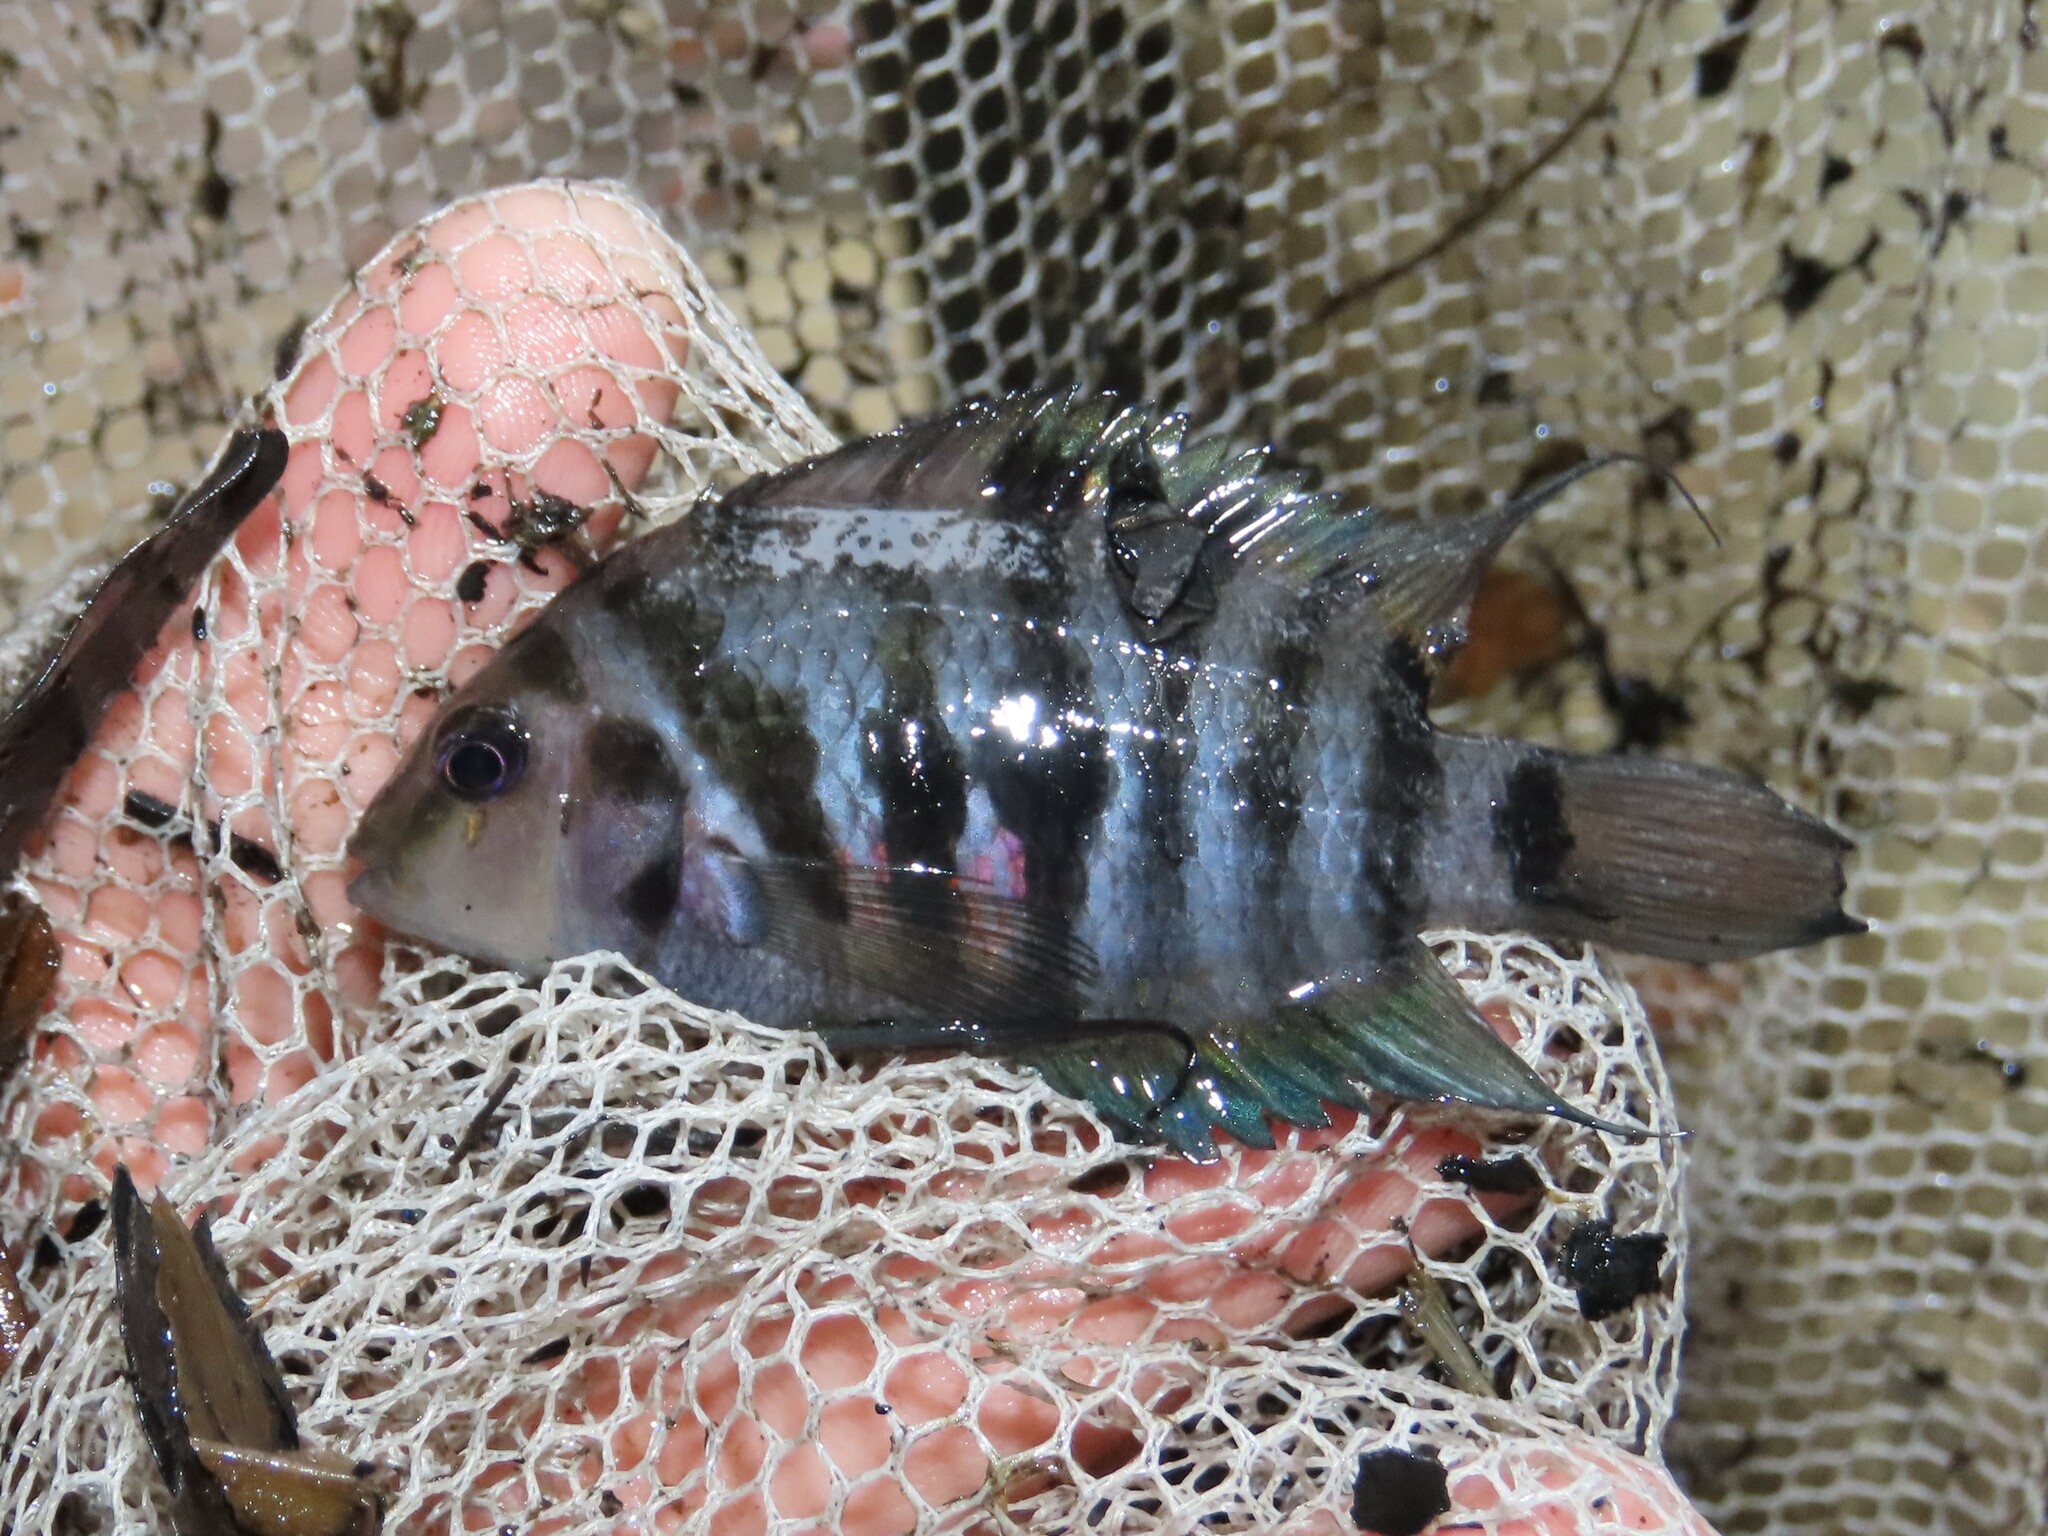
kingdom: Animalia
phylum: Chordata
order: Perciformes
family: Cichlidae
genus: Amatitlania
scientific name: Amatitlania nigrofasciata
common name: Convict cichlid
